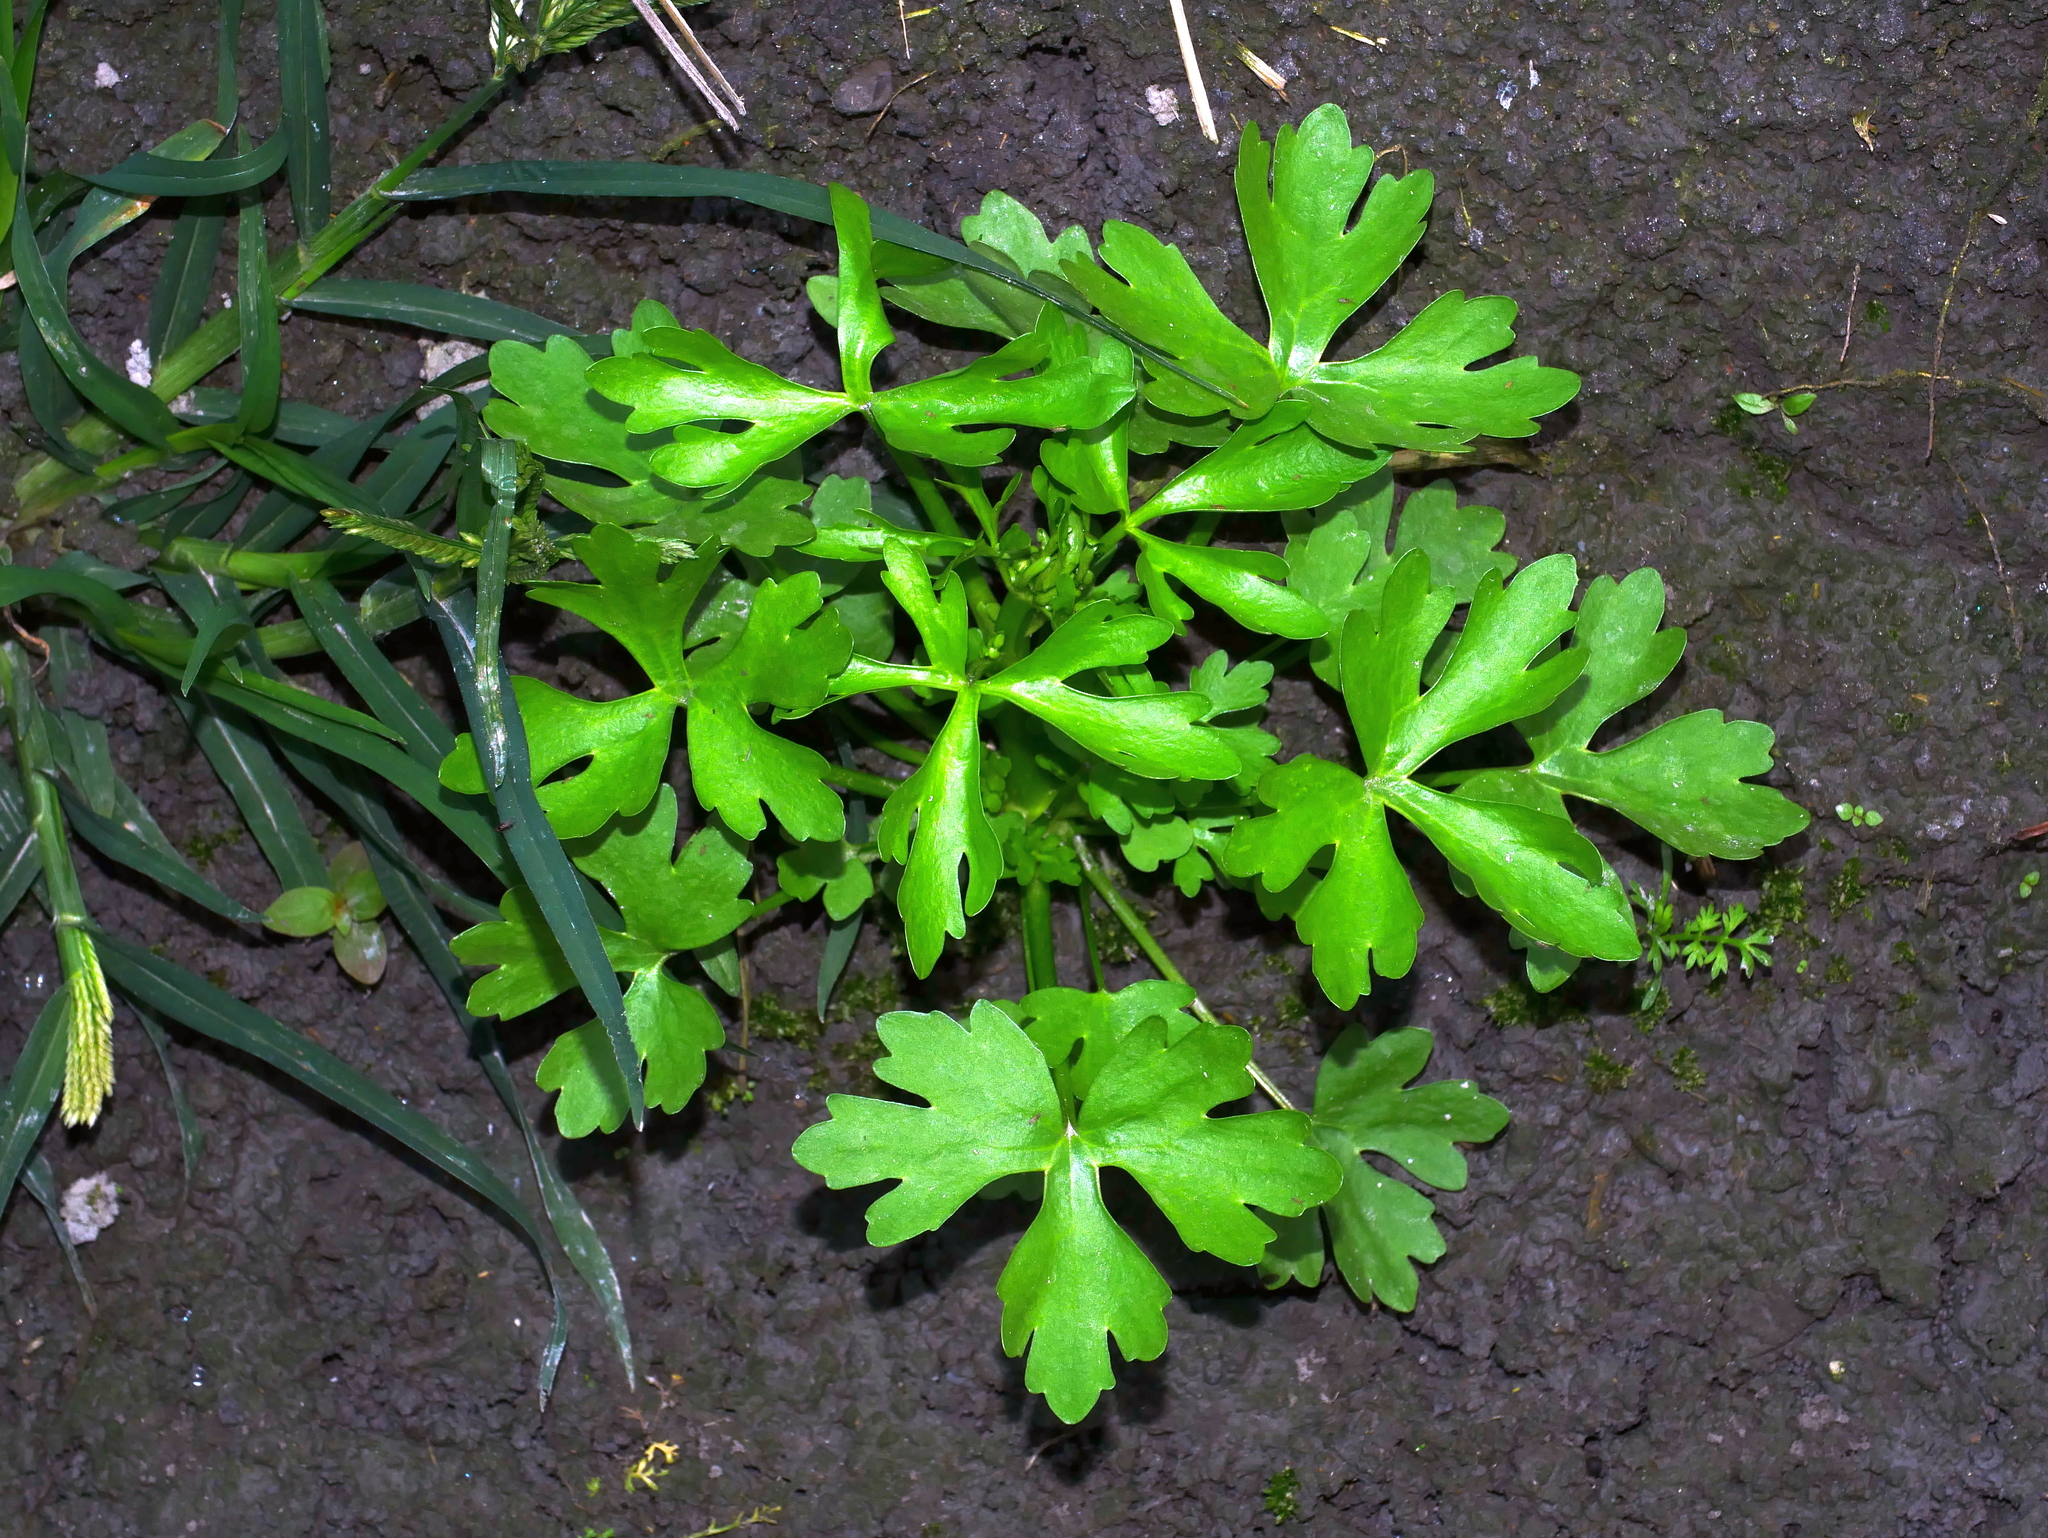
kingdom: Plantae
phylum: Tracheophyta
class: Magnoliopsida
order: Ranunculales
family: Ranunculaceae
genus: Ranunculus
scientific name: Ranunculus sceleratus
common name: Celery-leaved buttercup
